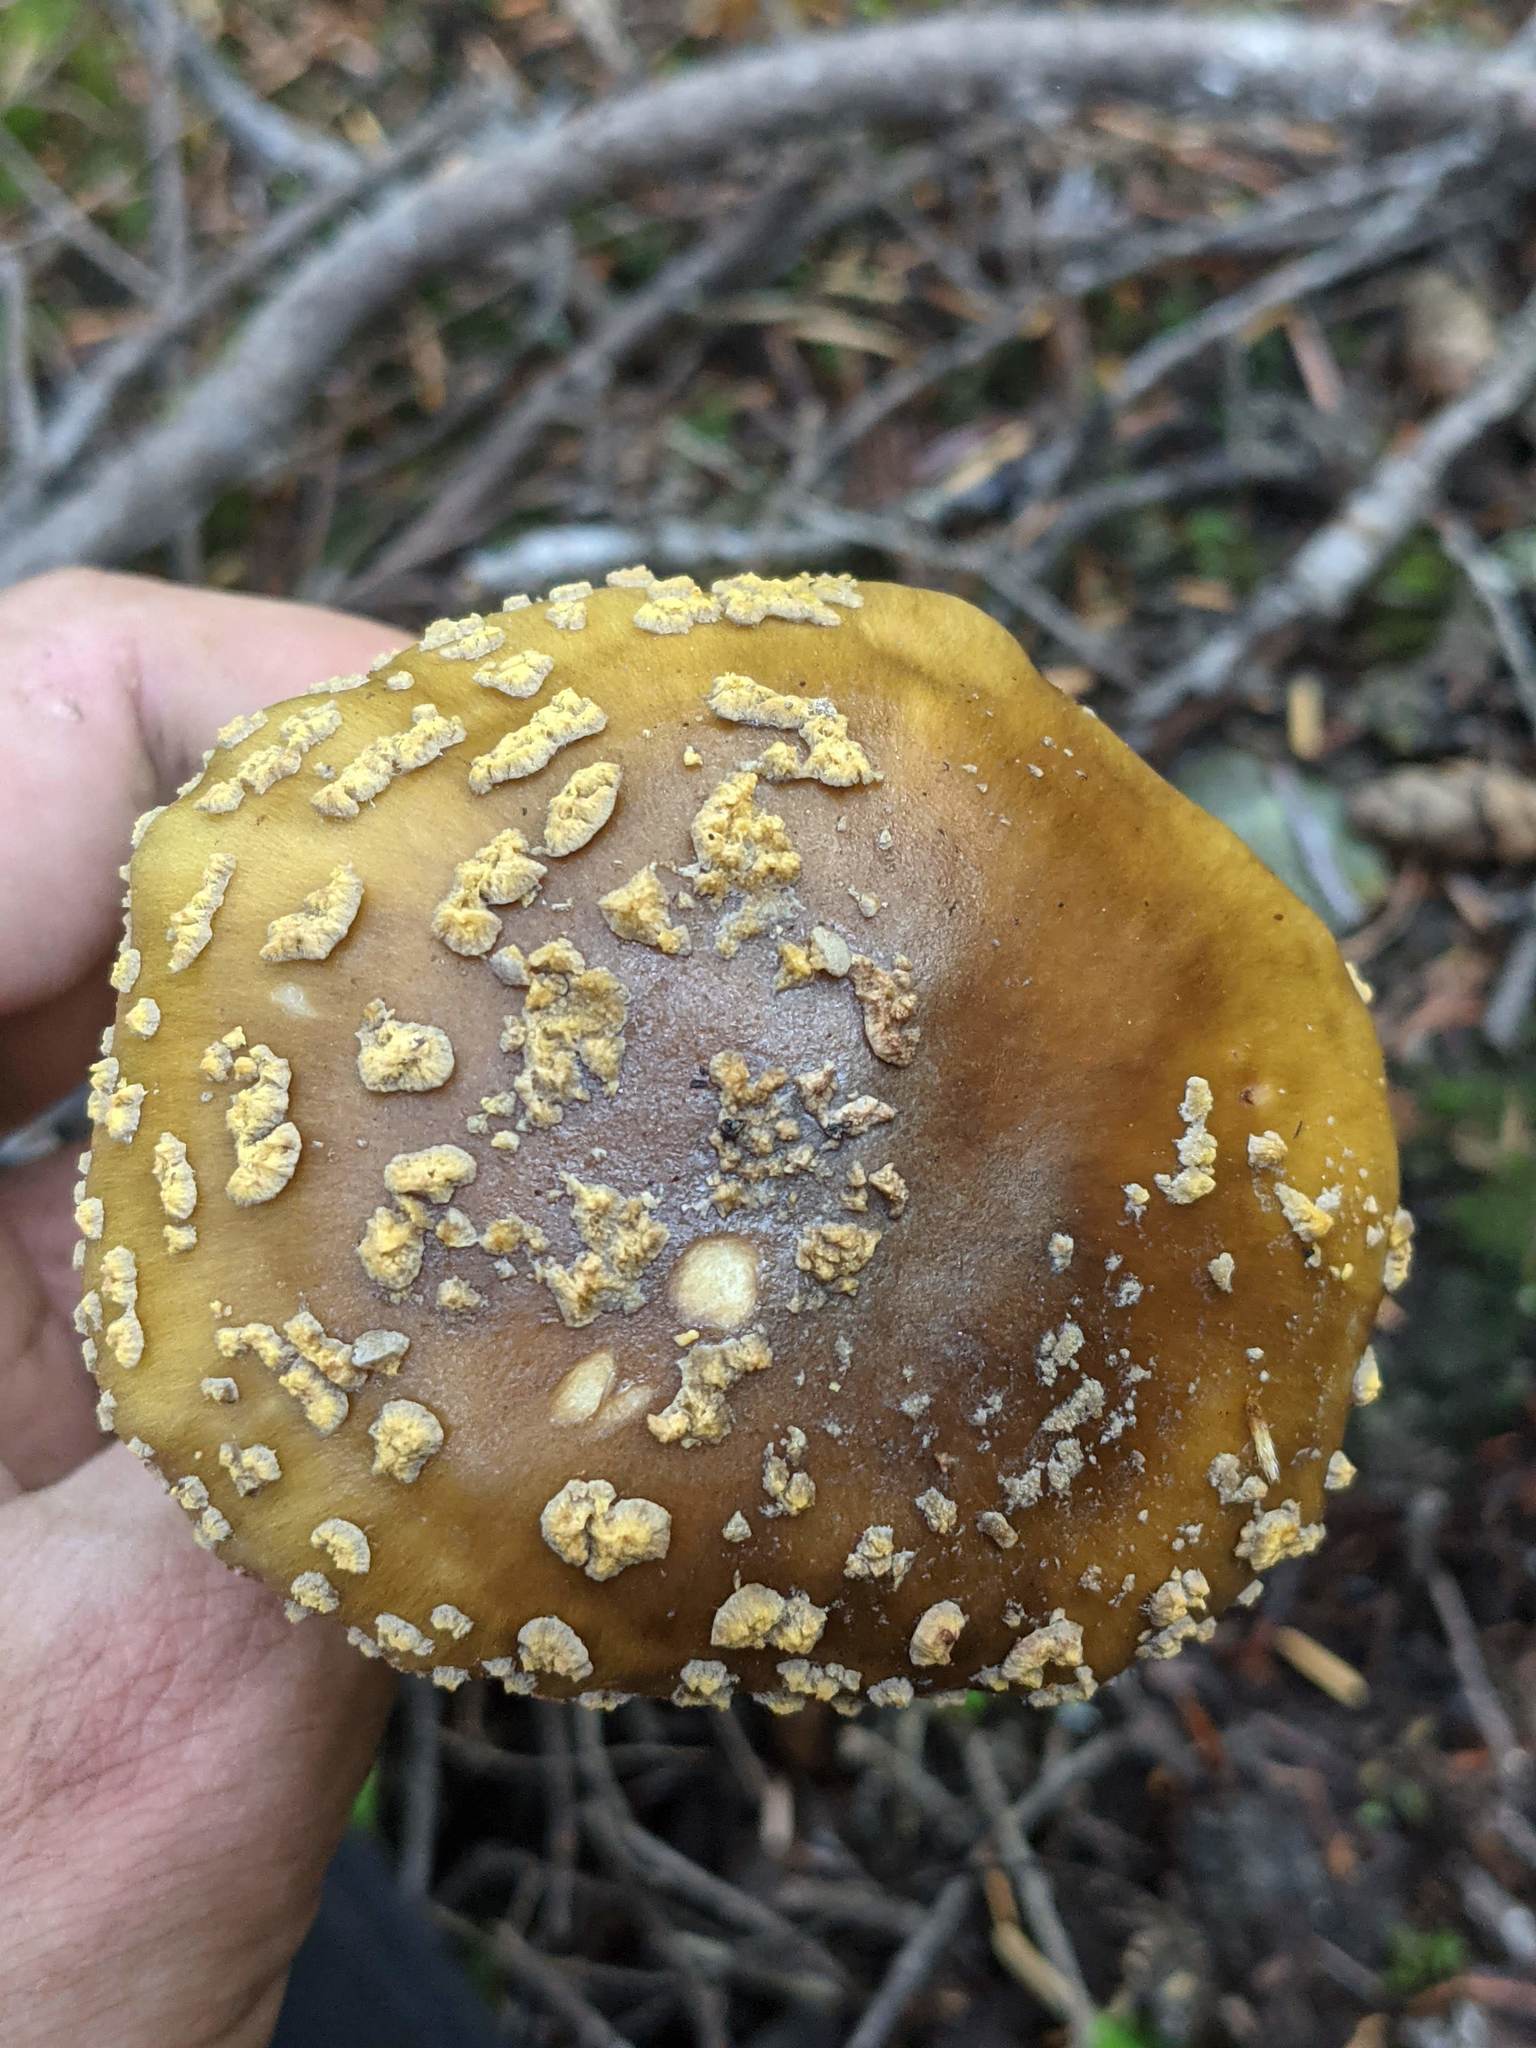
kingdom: Fungi
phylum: Basidiomycota
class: Agaricomycetes
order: Agaricales
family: Amanitaceae
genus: Amanita
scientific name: Amanita augusta
